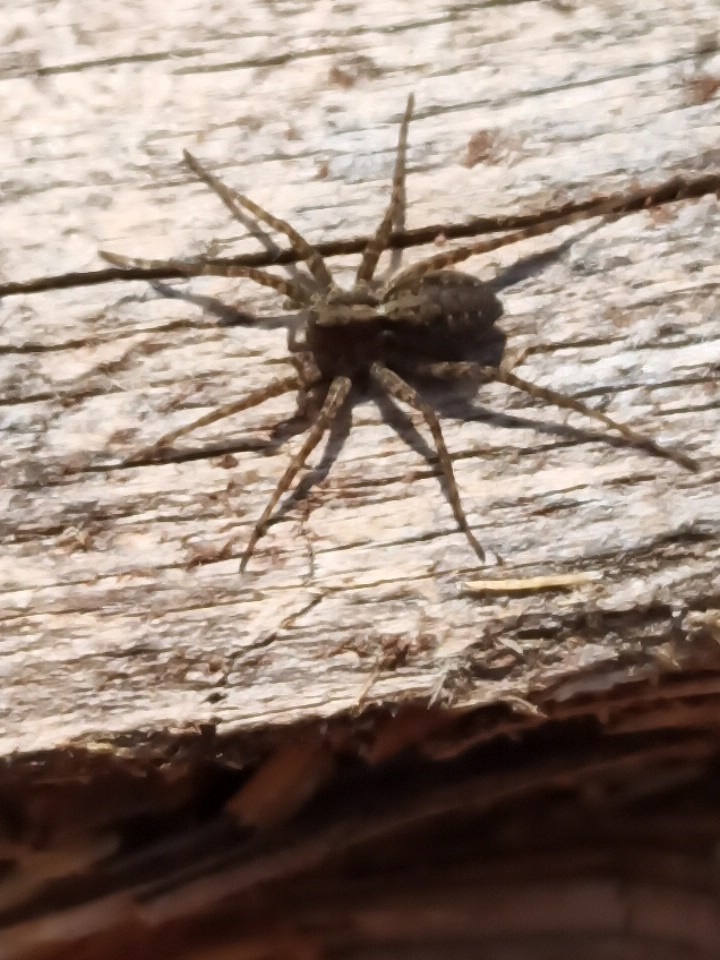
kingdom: Plantae
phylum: Tracheophyta
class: Magnoliopsida
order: Malpighiales
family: Euphorbiaceae
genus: Mercurialis
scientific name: Mercurialis perennis
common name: Dog mercury
